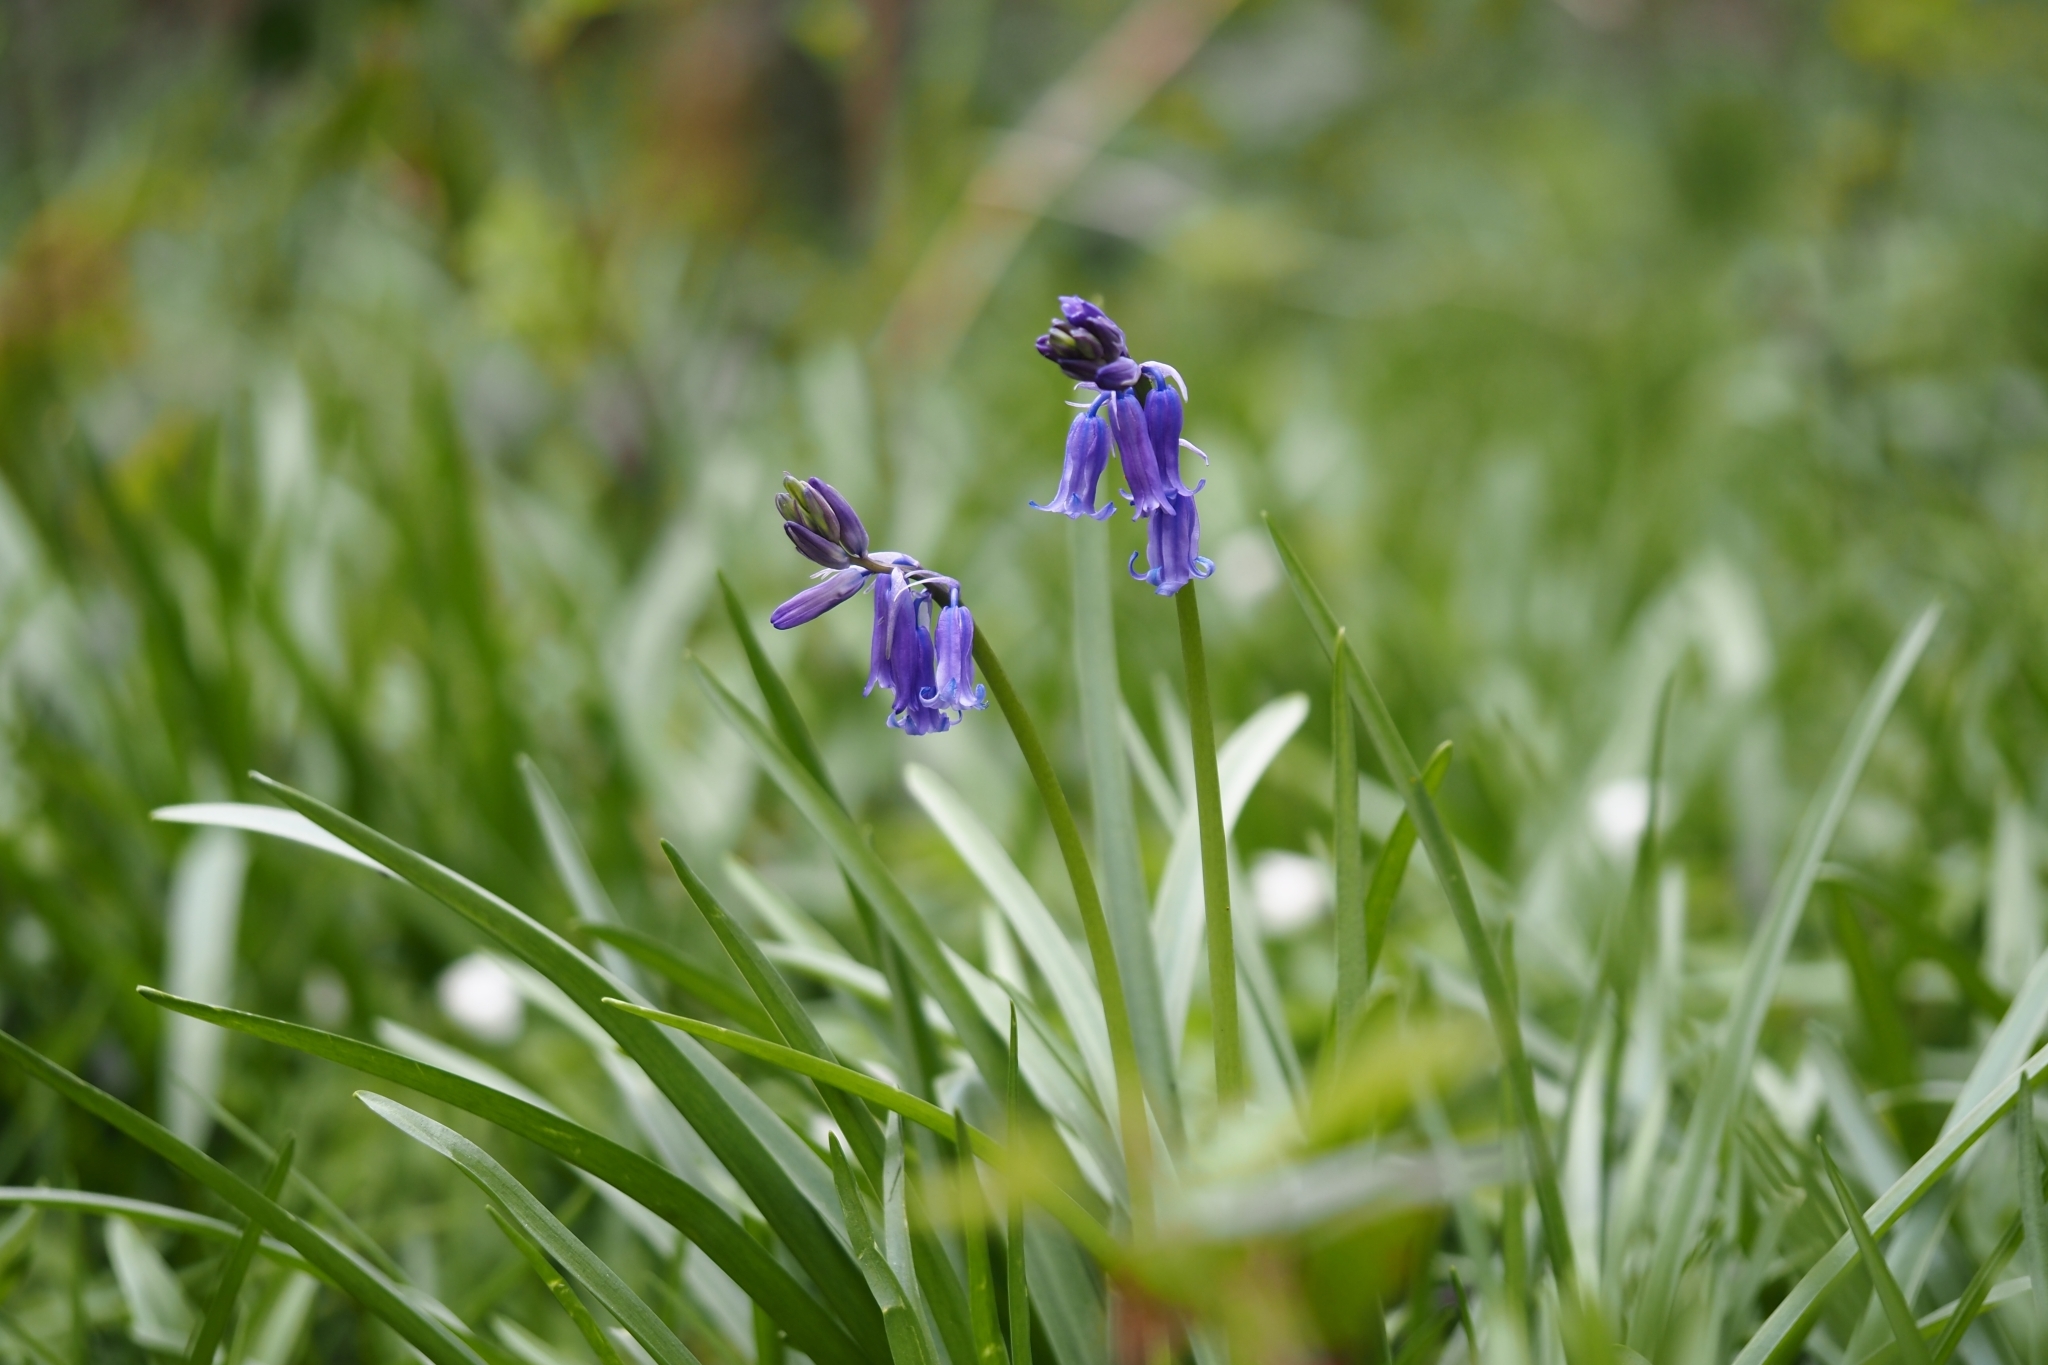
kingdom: Plantae
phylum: Tracheophyta
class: Liliopsida
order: Asparagales
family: Asparagaceae
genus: Hyacinthoides
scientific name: Hyacinthoides non-scripta
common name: Bluebell
